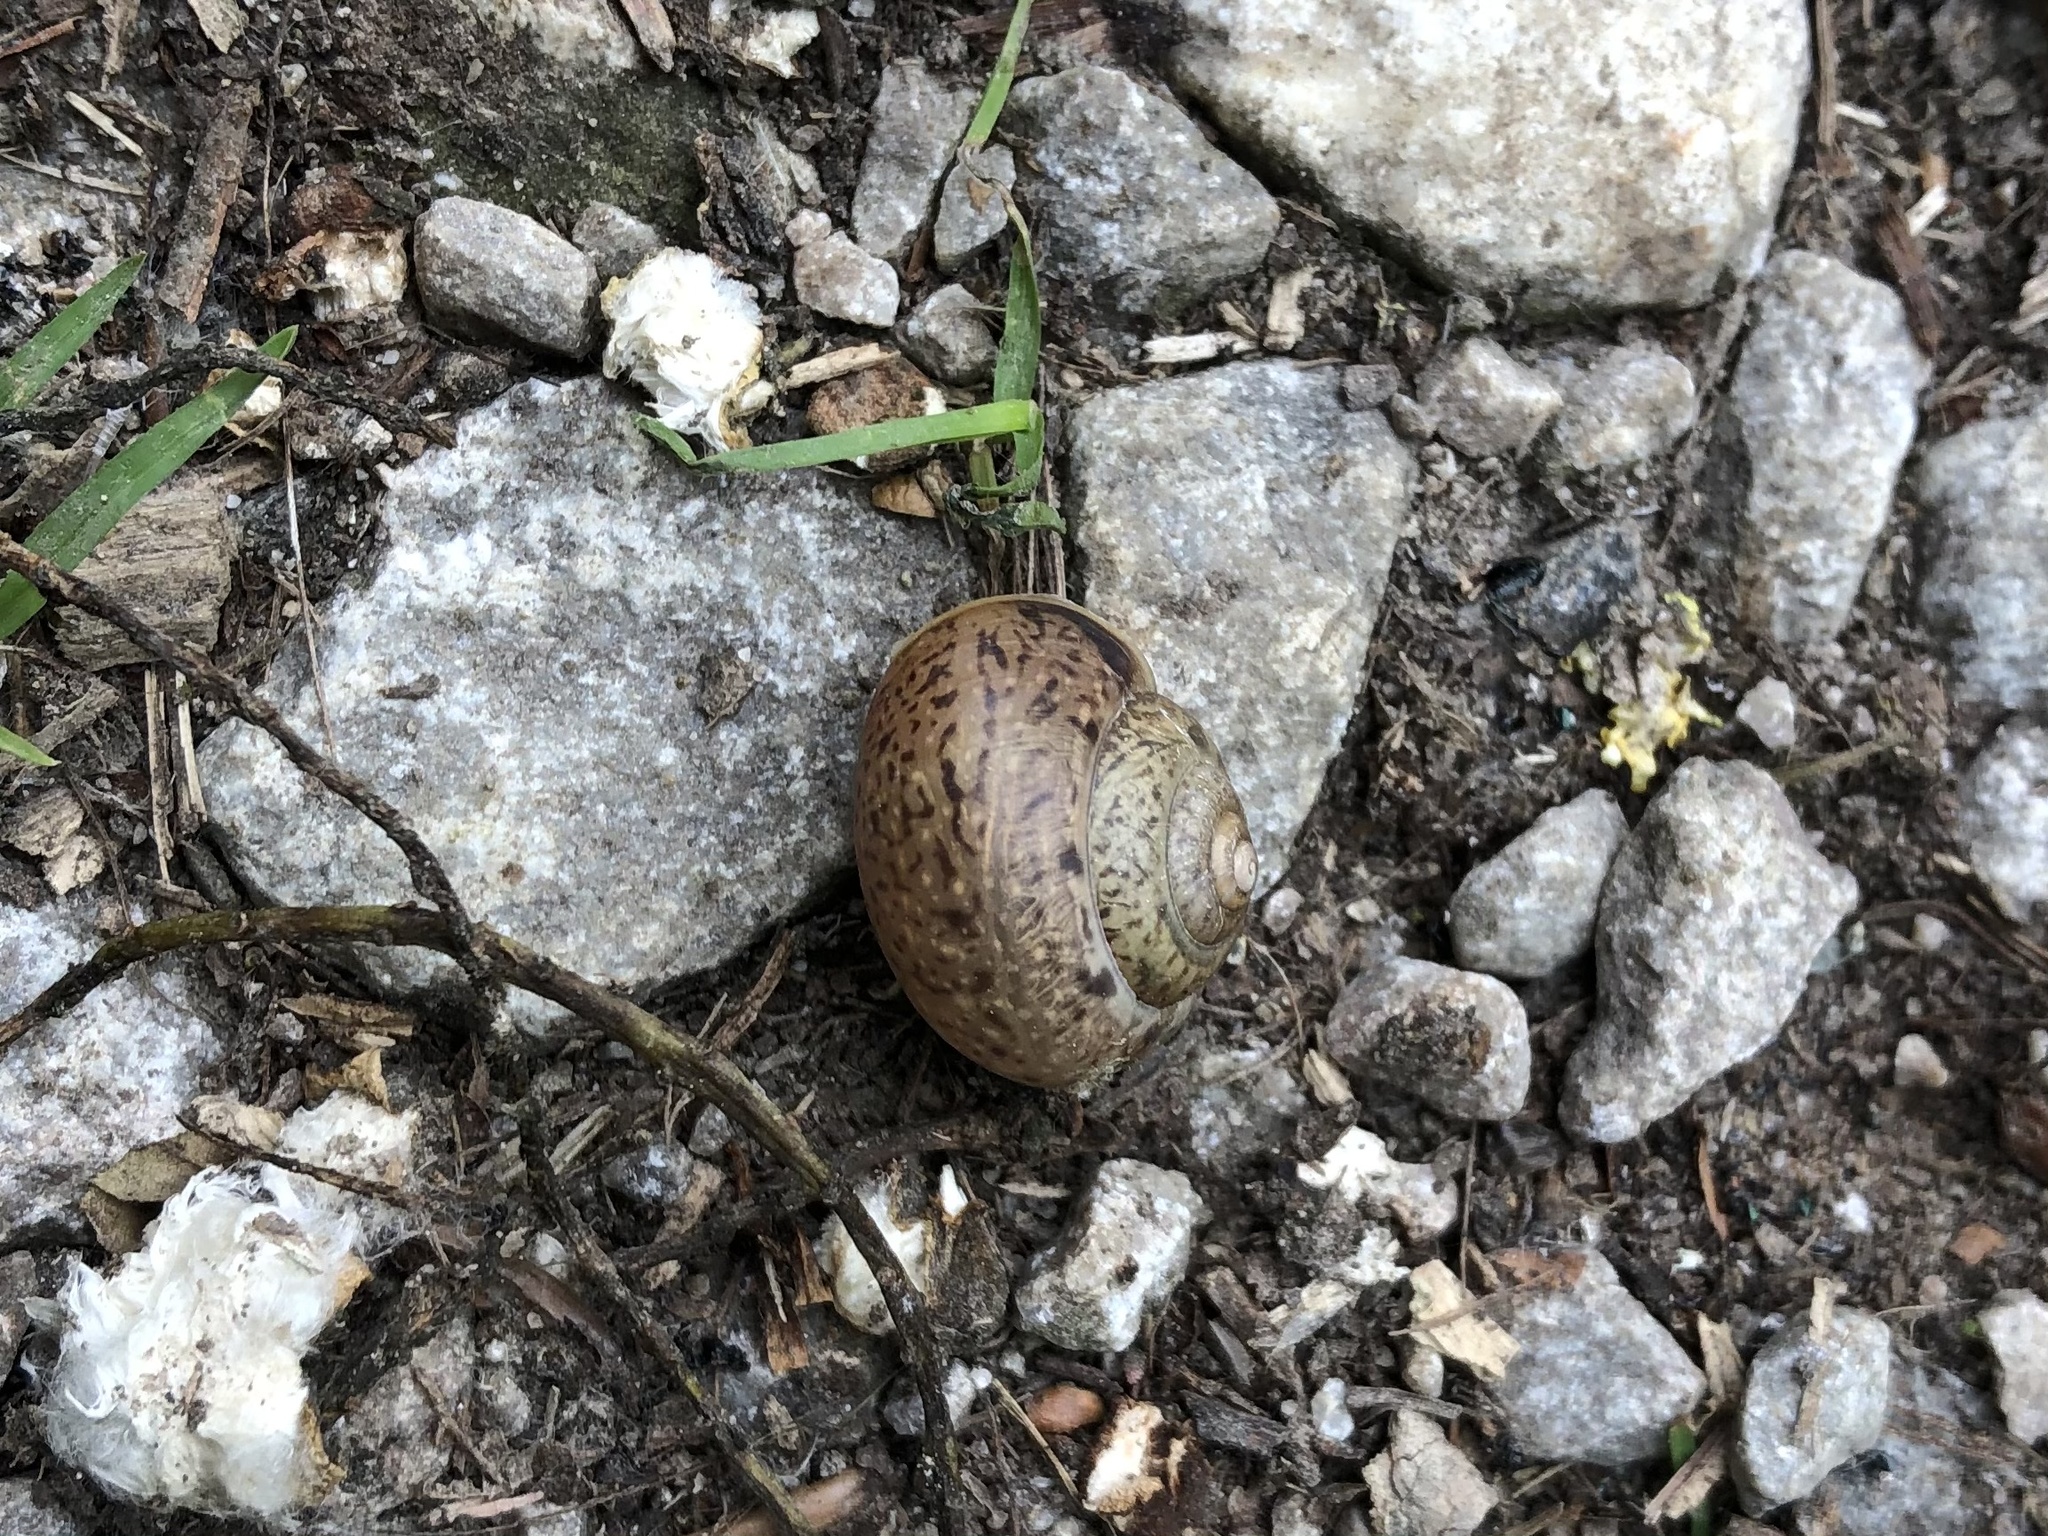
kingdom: Animalia
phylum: Mollusca
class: Gastropoda
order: Stylommatophora
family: Camaenidae
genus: Fruticicola
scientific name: Fruticicola fruticum
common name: Bush snail
